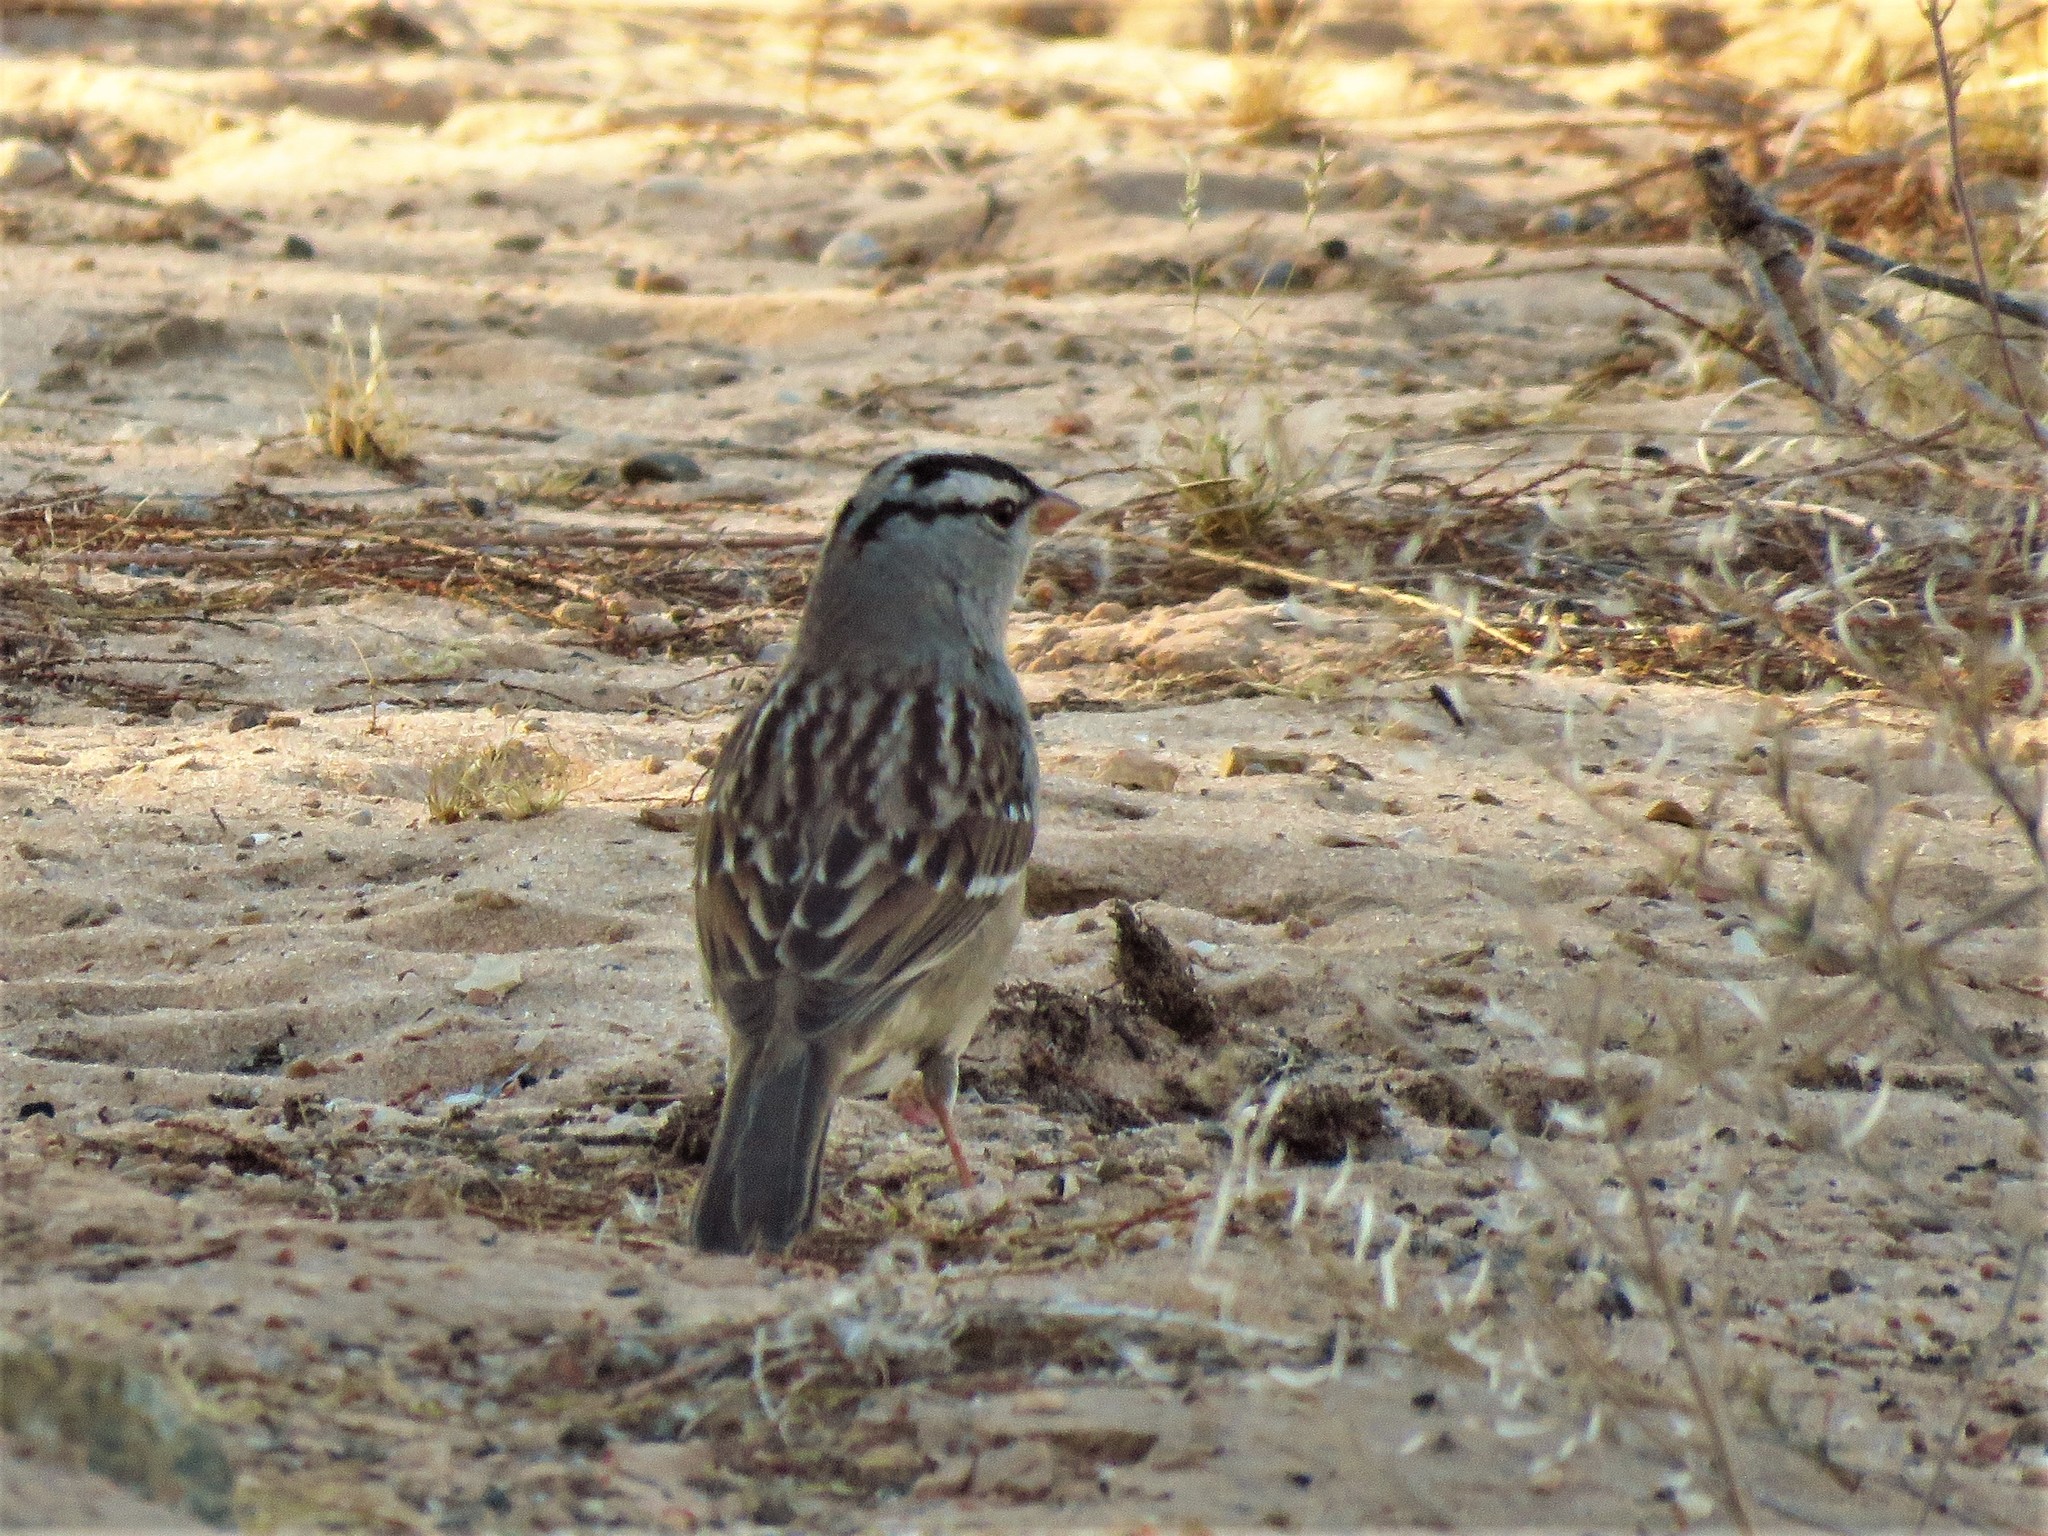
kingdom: Animalia
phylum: Chordata
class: Aves
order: Passeriformes
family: Passerellidae
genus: Zonotrichia
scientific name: Zonotrichia leucophrys
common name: White-crowned sparrow
